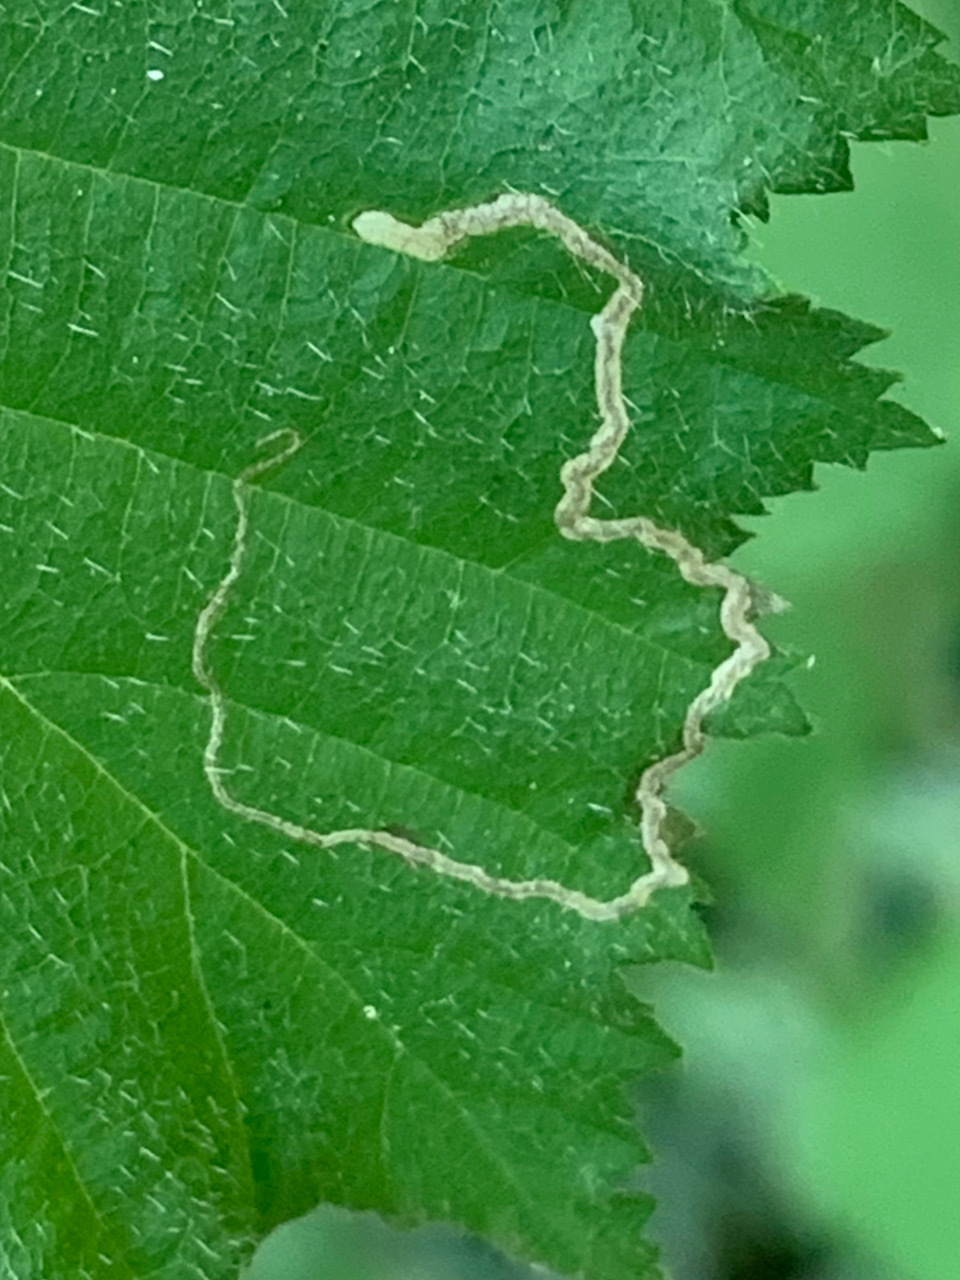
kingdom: Animalia
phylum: Arthropoda
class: Insecta
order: Lepidoptera
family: Nepticulidae
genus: Stigmella
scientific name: Stigmella microtheriella
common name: Nut-tree pigmy
